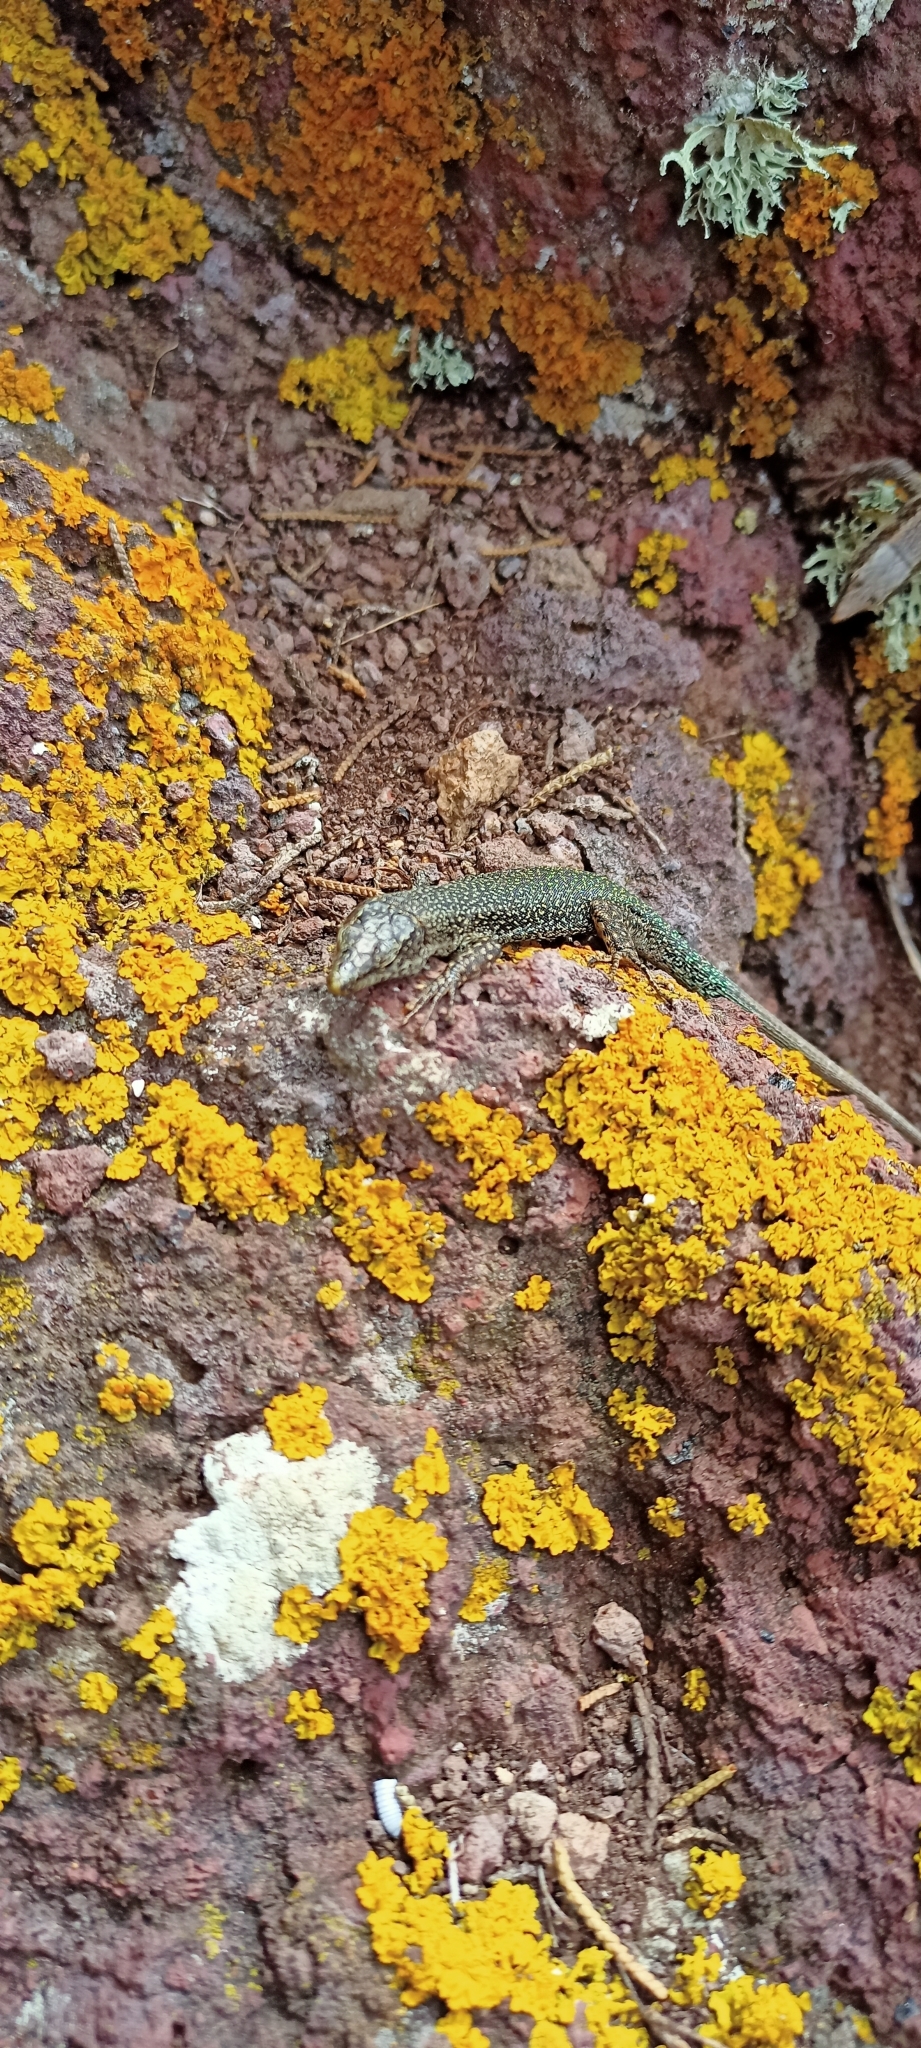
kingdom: Animalia
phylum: Chordata
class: Squamata
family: Lacertidae
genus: Teira
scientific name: Teira dugesii
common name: Madeira lizard
